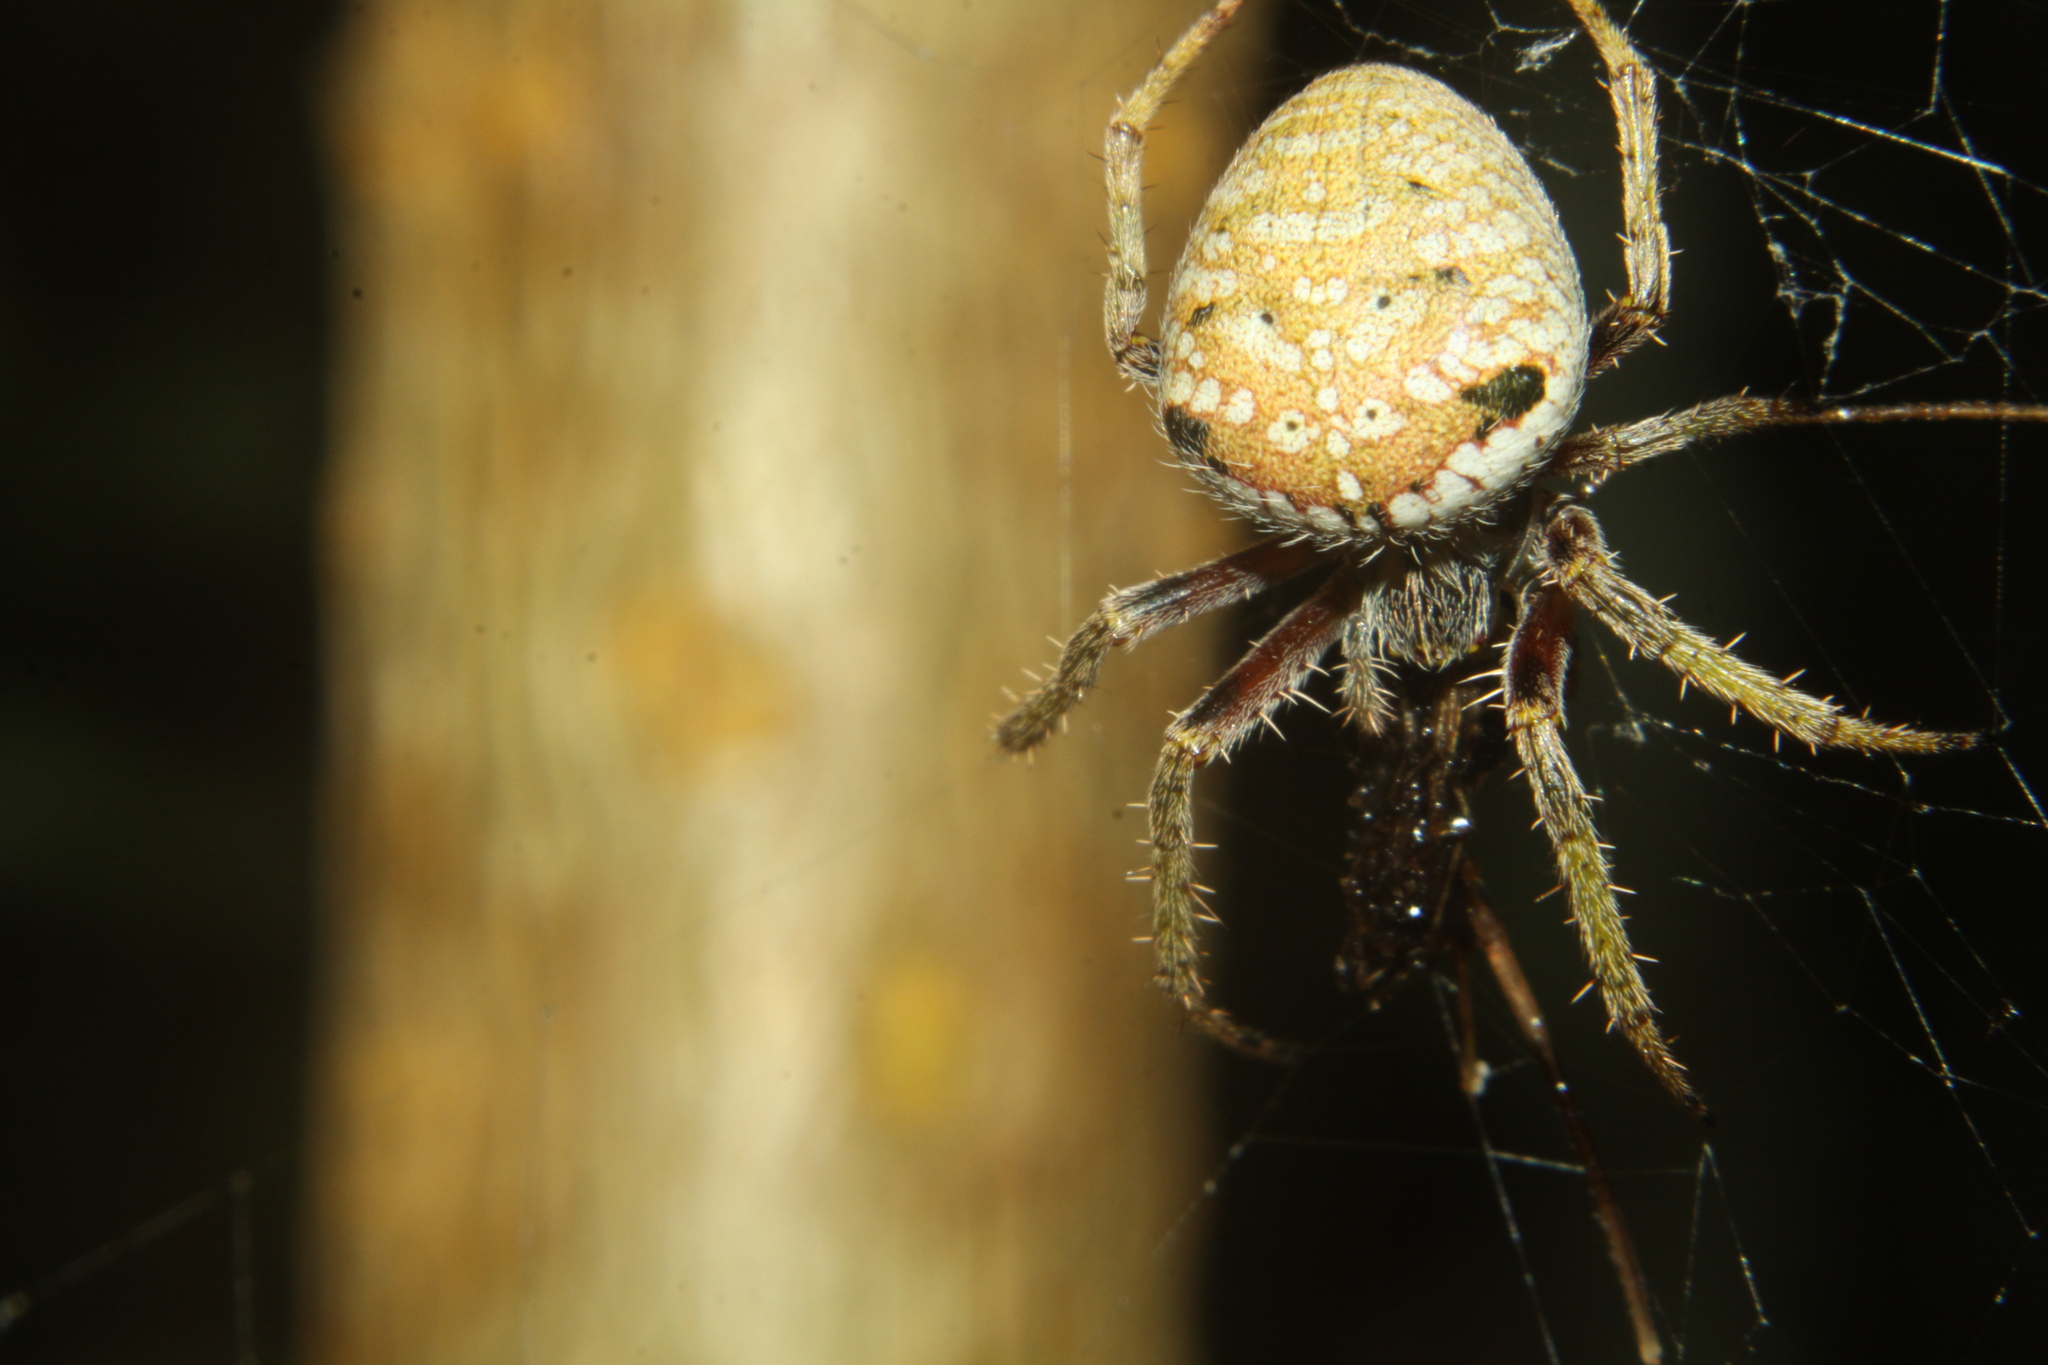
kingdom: Animalia
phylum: Arthropoda
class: Arachnida
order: Araneae
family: Araneidae
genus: Zealaranea
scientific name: Zealaranea crassa
